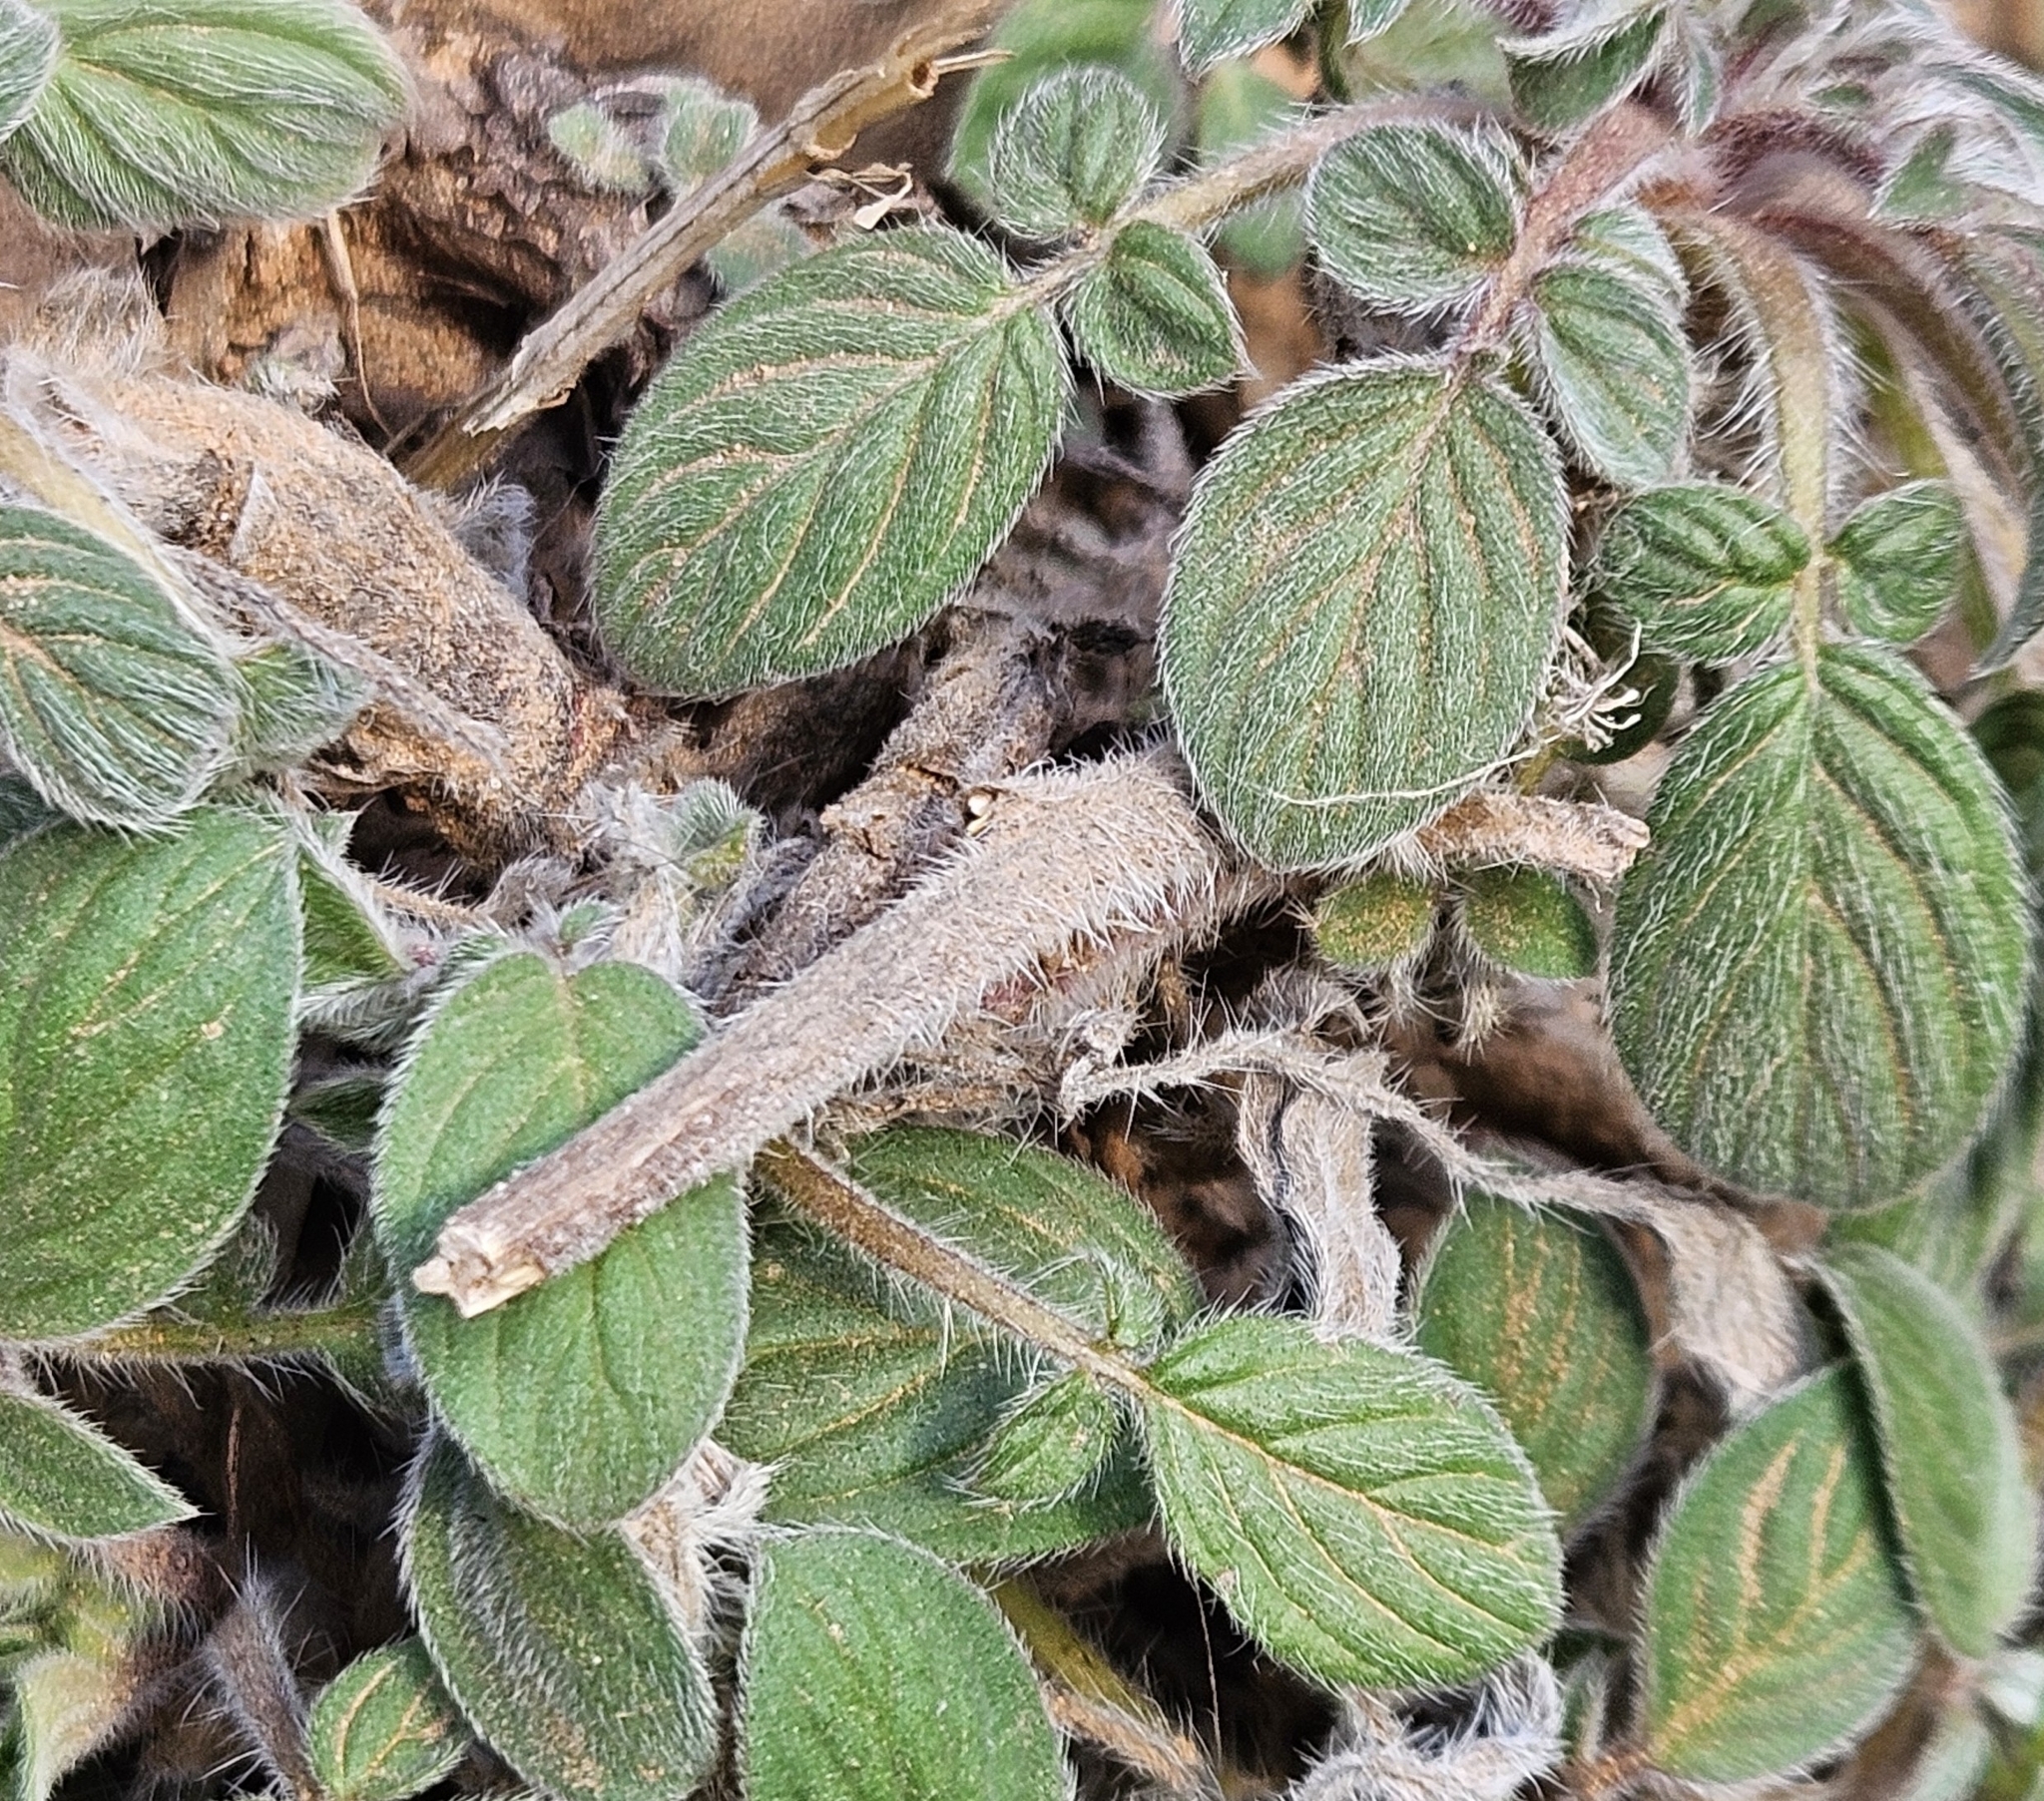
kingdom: Plantae
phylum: Tracheophyta
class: Magnoliopsida
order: Boraginales
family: Hydrophyllaceae
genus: Phacelia
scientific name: Phacelia heterophylla
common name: Variable-leaved phacelia
